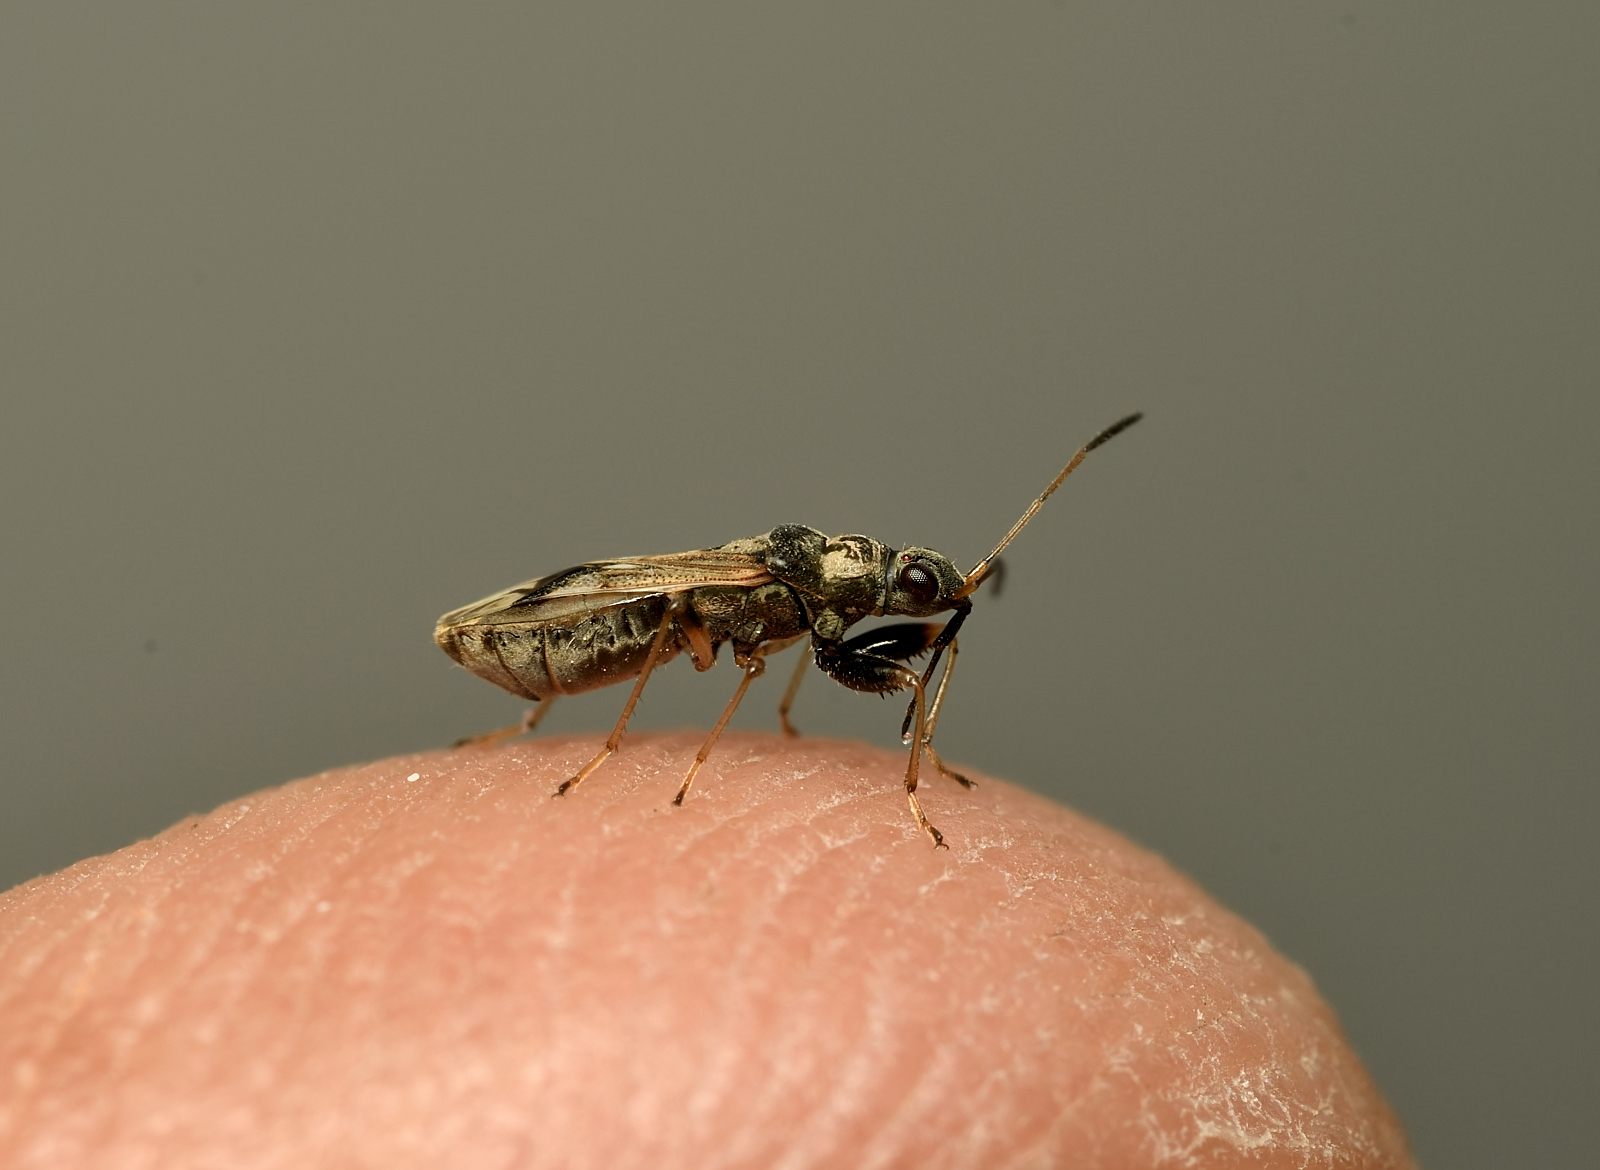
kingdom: Animalia
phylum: Arthropoda
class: Insecta
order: Hemiptera
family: Rhyparochromidae
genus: Pseudopachybrachius
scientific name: Pseudopachybrachius guttus
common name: Seed bug
